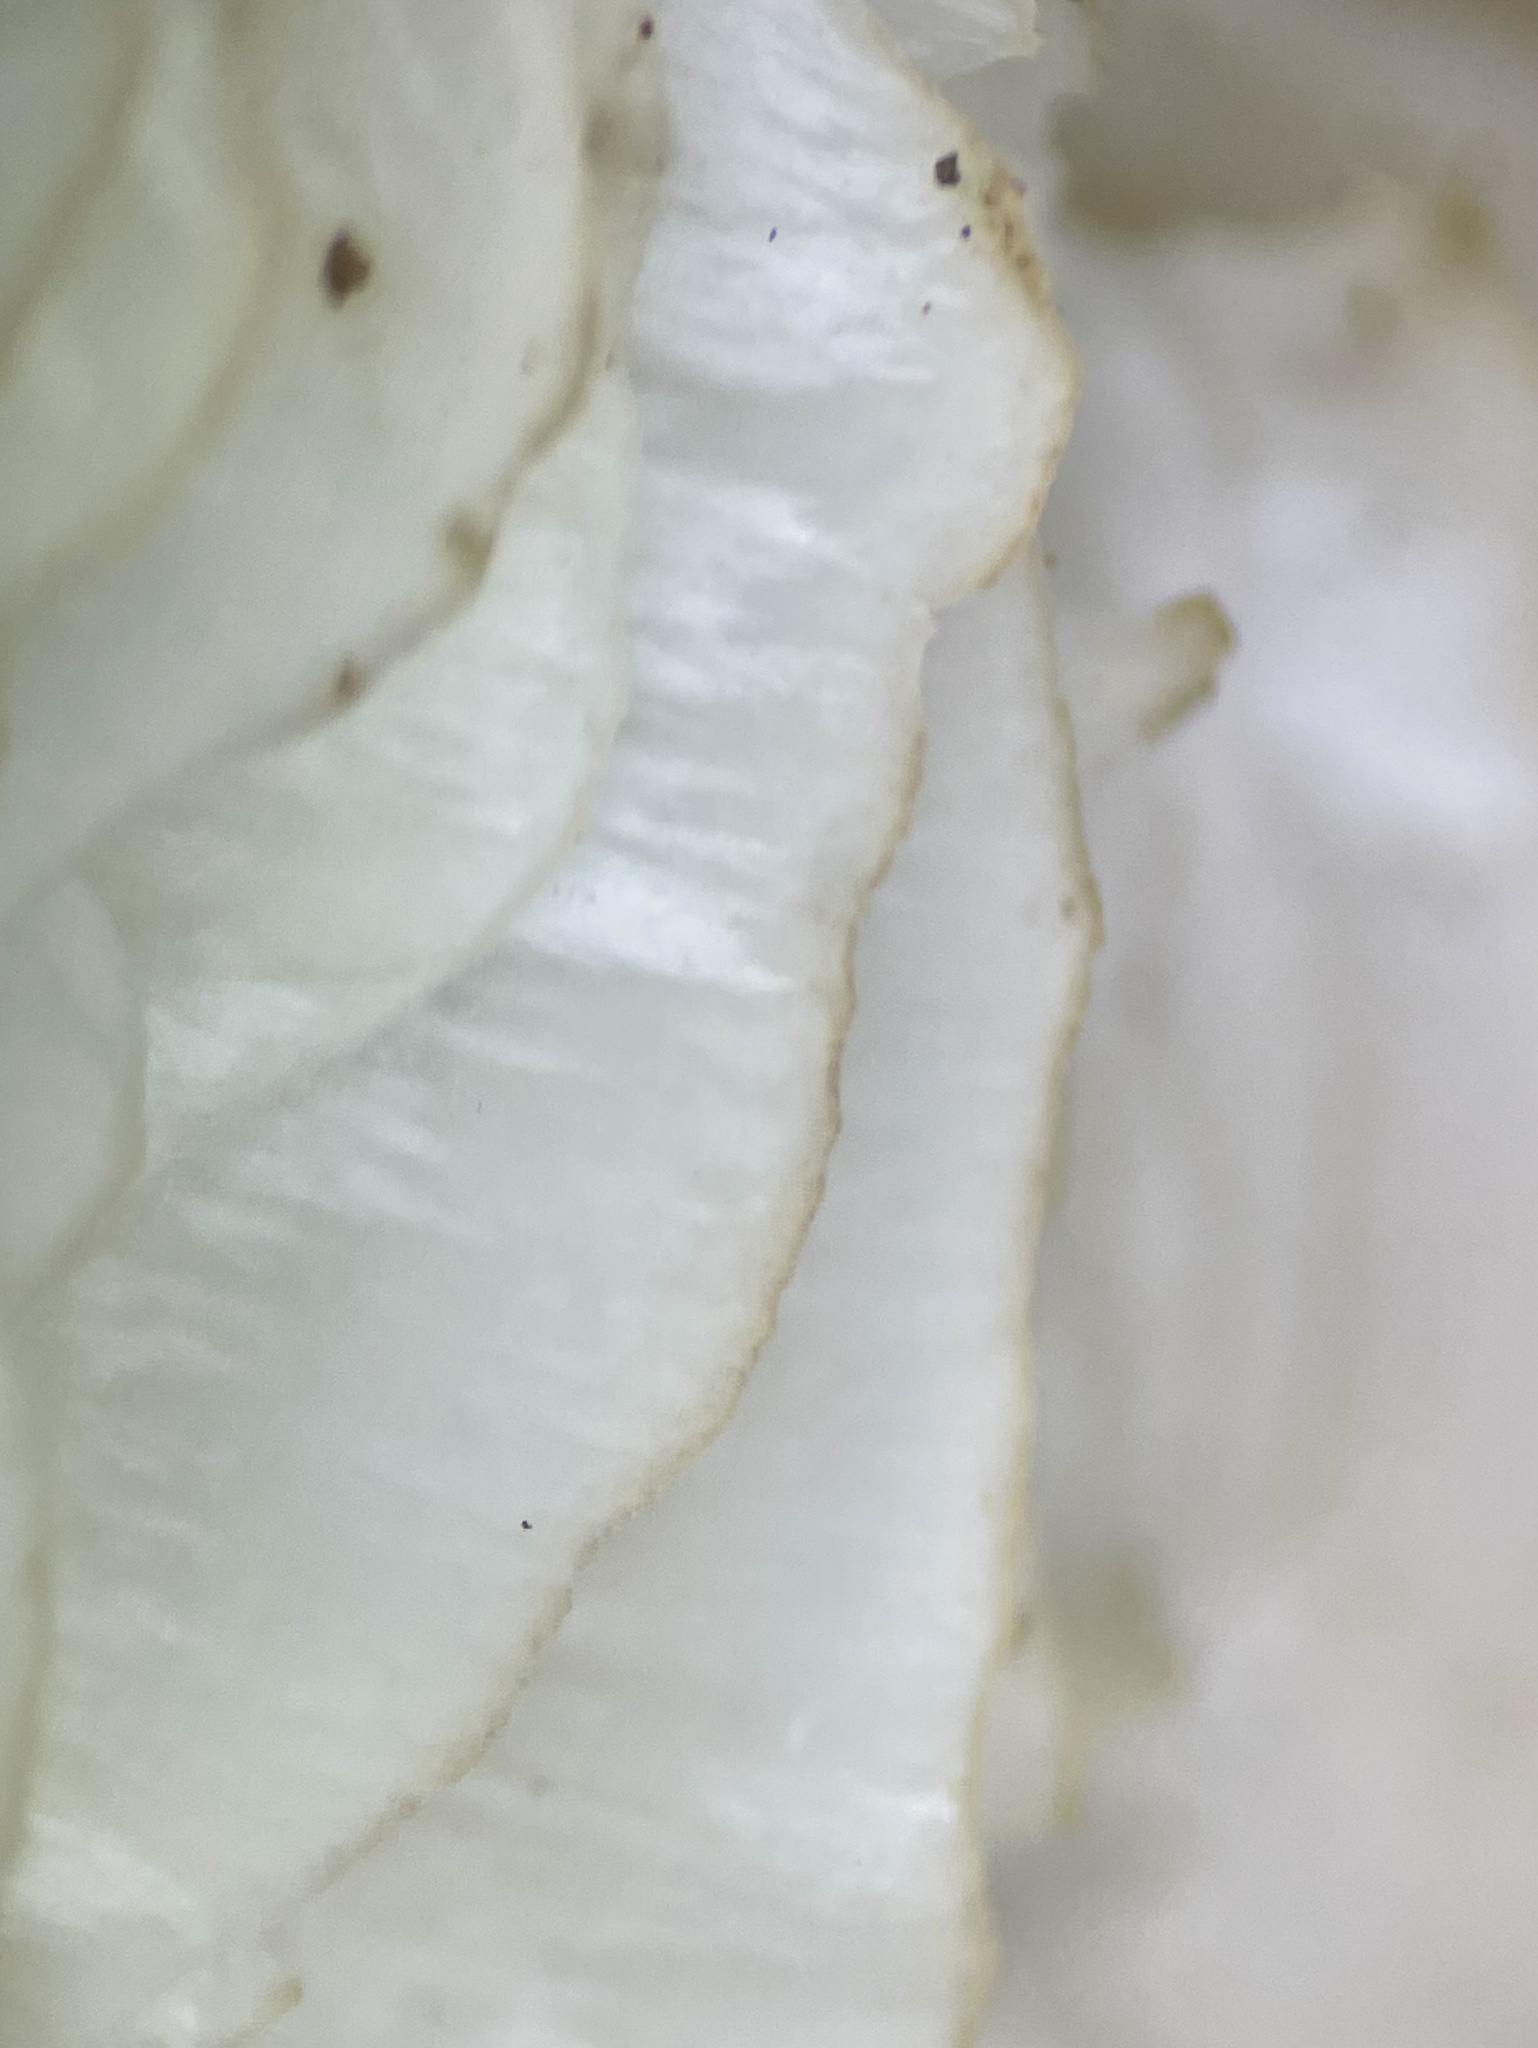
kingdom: Fungi
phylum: Basidiomycota
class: Agaricomycetes
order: Agaricales
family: Tricholomataceae
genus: Megacollybia
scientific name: Megacollybia rodmanii
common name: Eastern american platterful mushroom
